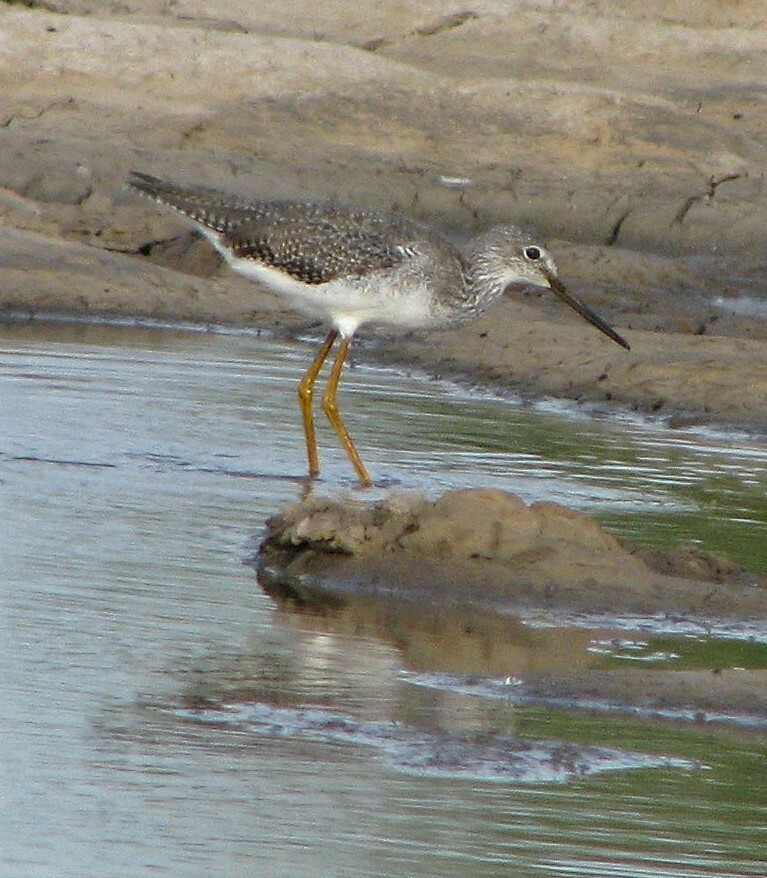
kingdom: Animalia
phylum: Chordata
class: Aves
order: Charadriiformes
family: Scolopacidae
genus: Tringa
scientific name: Tringa melanoleuca
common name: Greater yellowlegs
